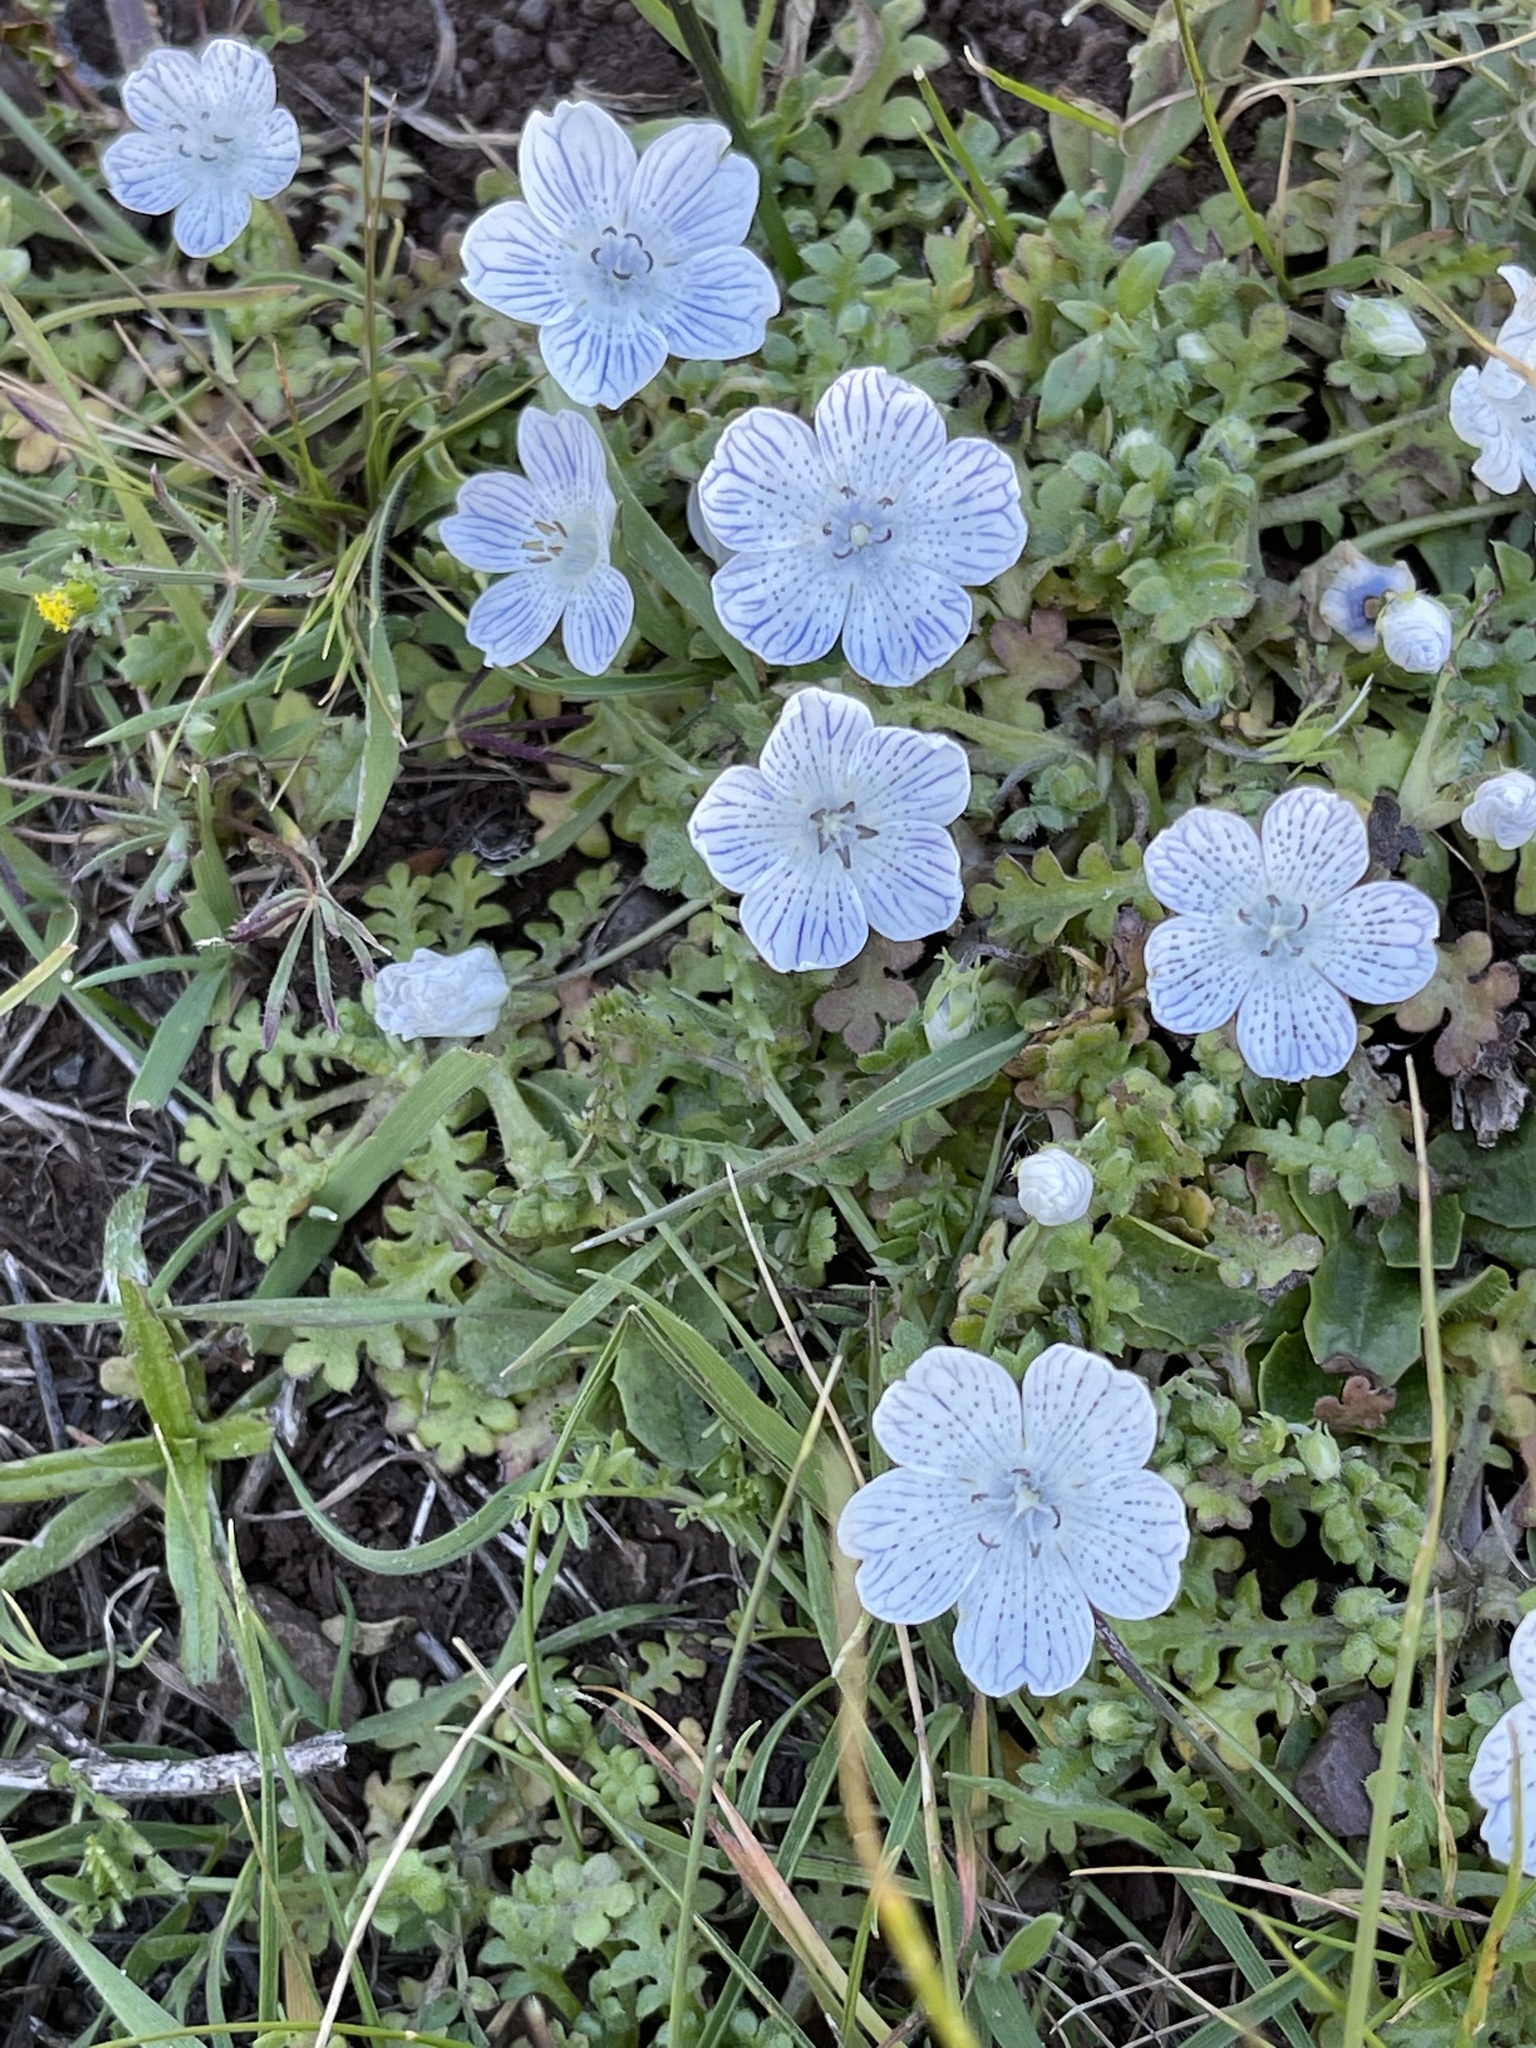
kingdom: Plantae
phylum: Tracheophyta
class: Magnoliopsida
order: Boraginales
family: Hydrophyllaceae
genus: Nemophila
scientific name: Nemophila menziesii
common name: Baby's-blue-eyes
